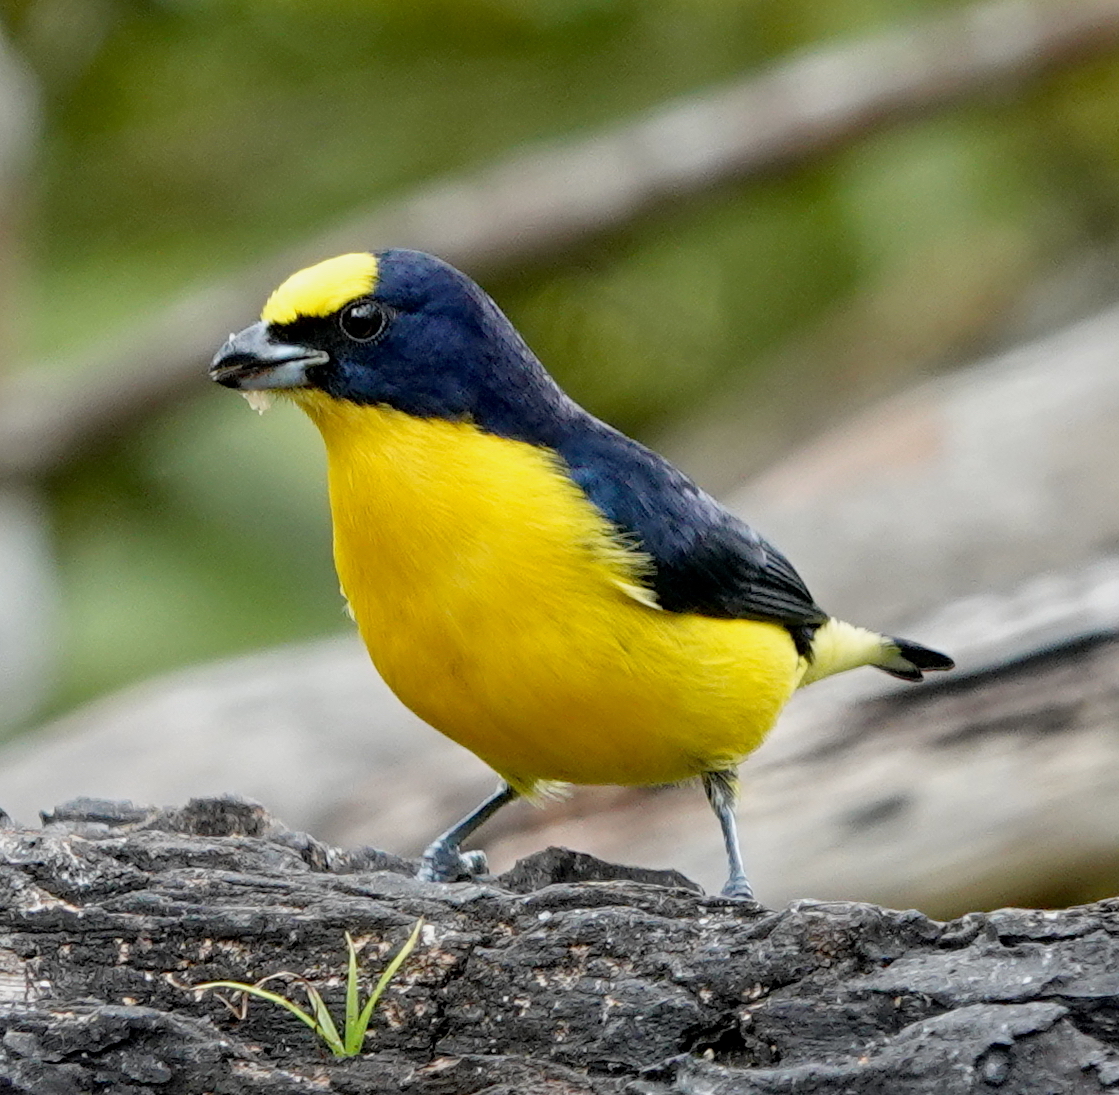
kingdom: Animalia
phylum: Chordata
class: Aves
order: Passeriformes
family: Fringillidae
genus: Euphonia
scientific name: Euphonia laniirostris
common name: Thick-billed euphonia
